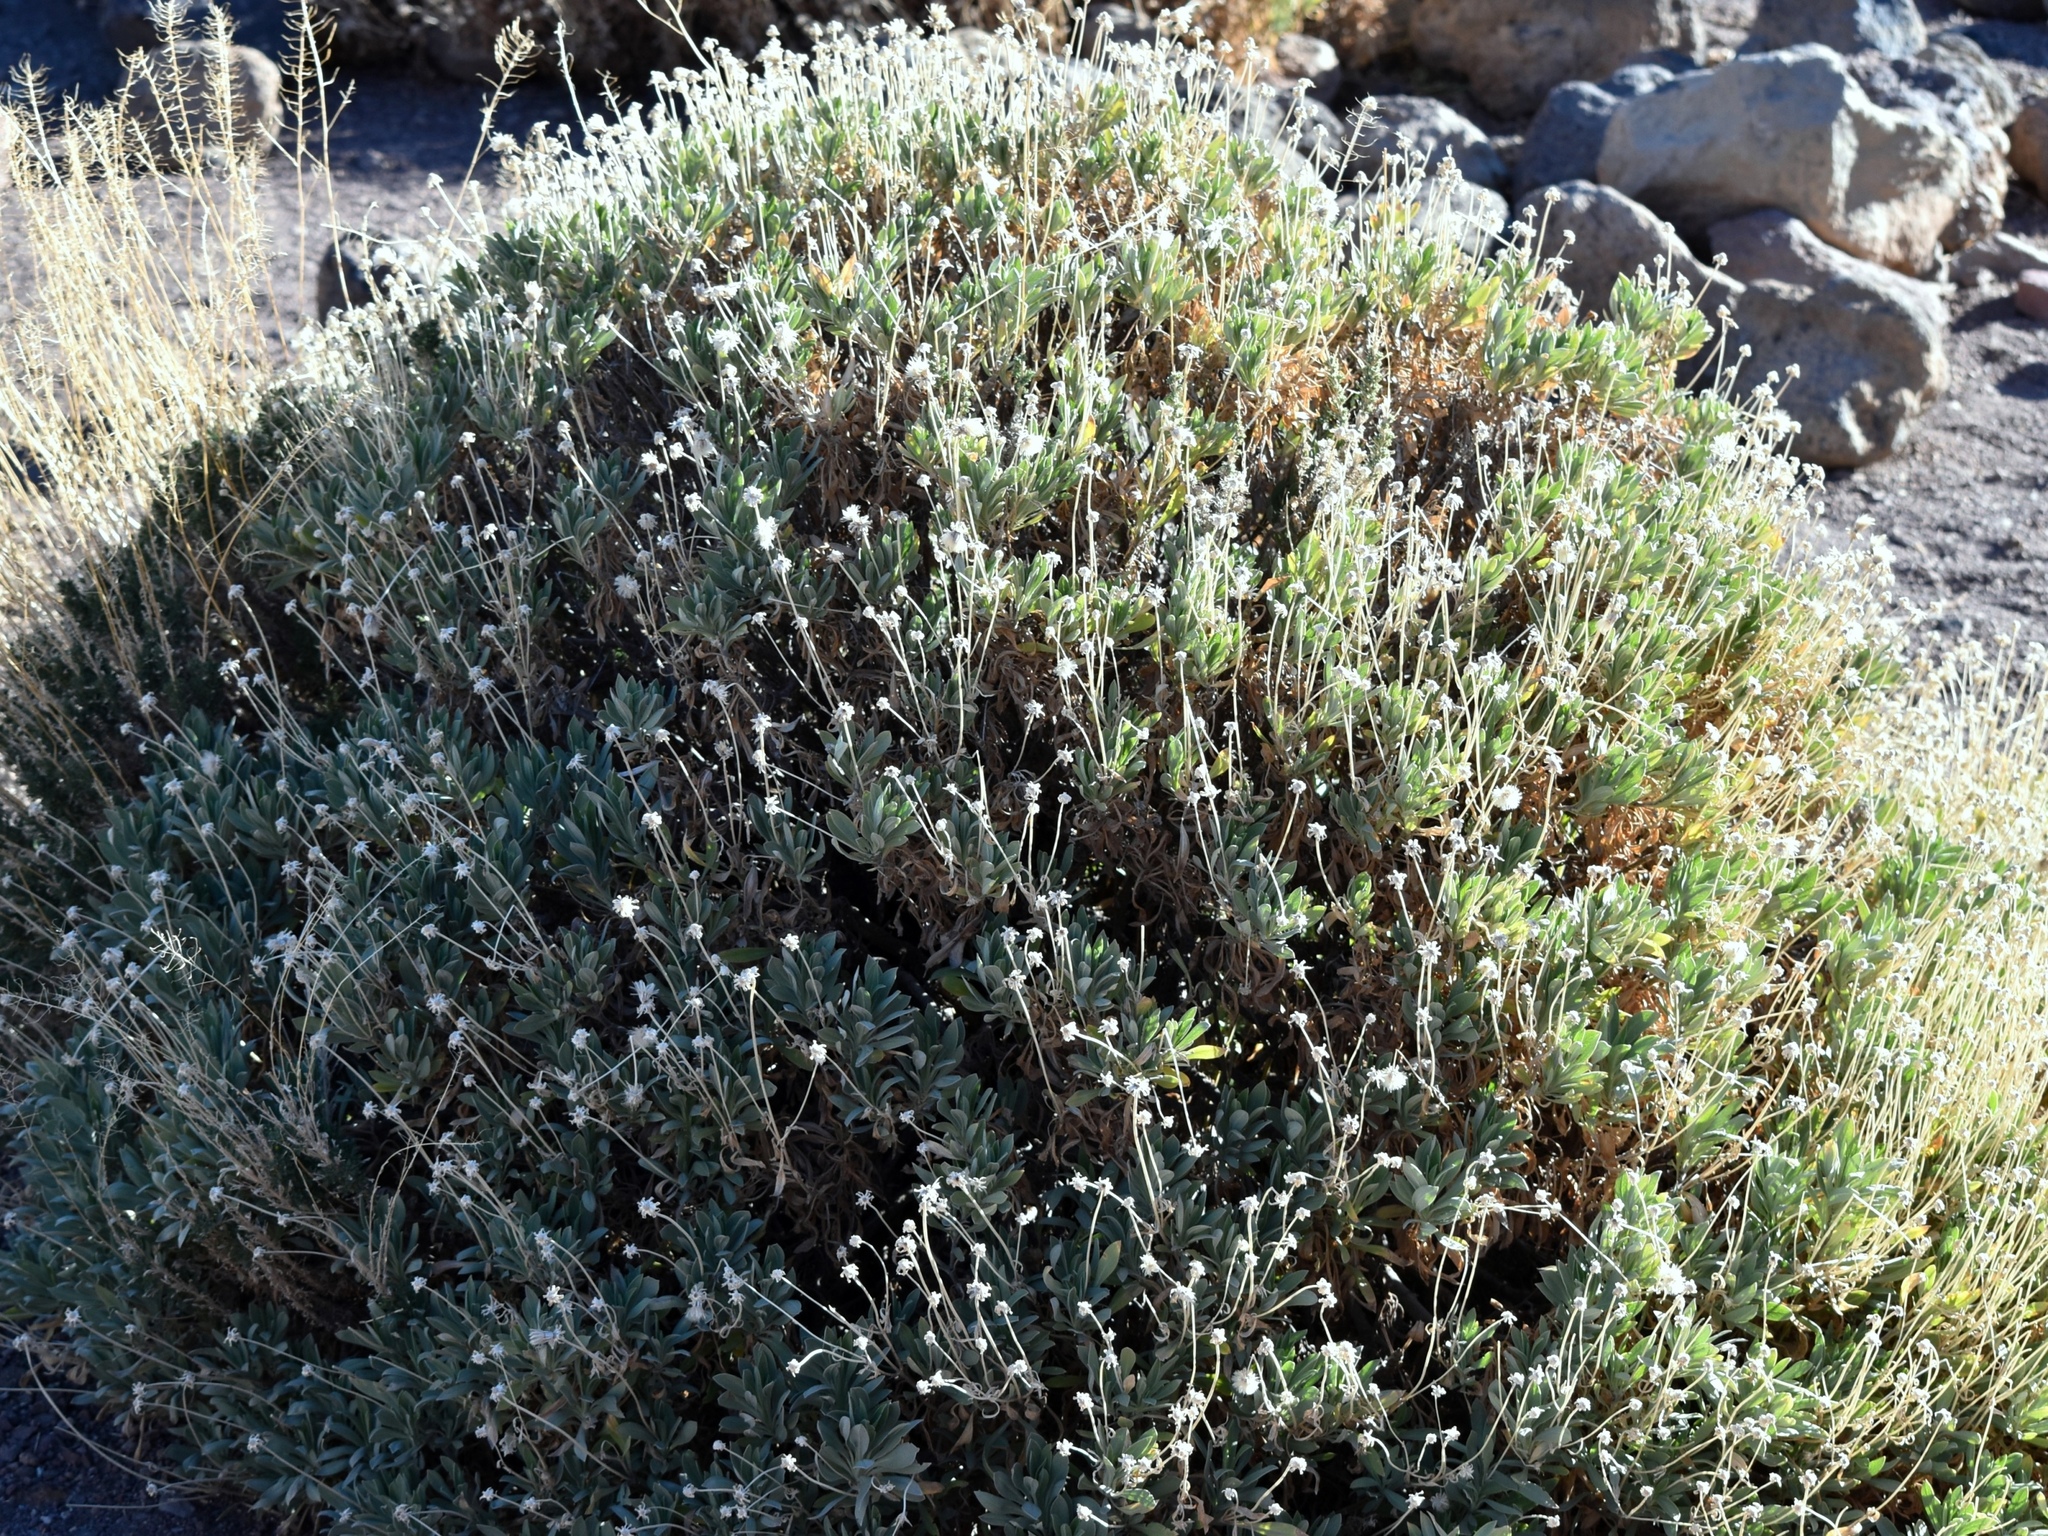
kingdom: Plantae
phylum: Tracheophyta
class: Magnoliopsida
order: Dipsacales
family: Caprifoliaceae
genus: Pterocephalus
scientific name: Pterocephalus lasiospermus
